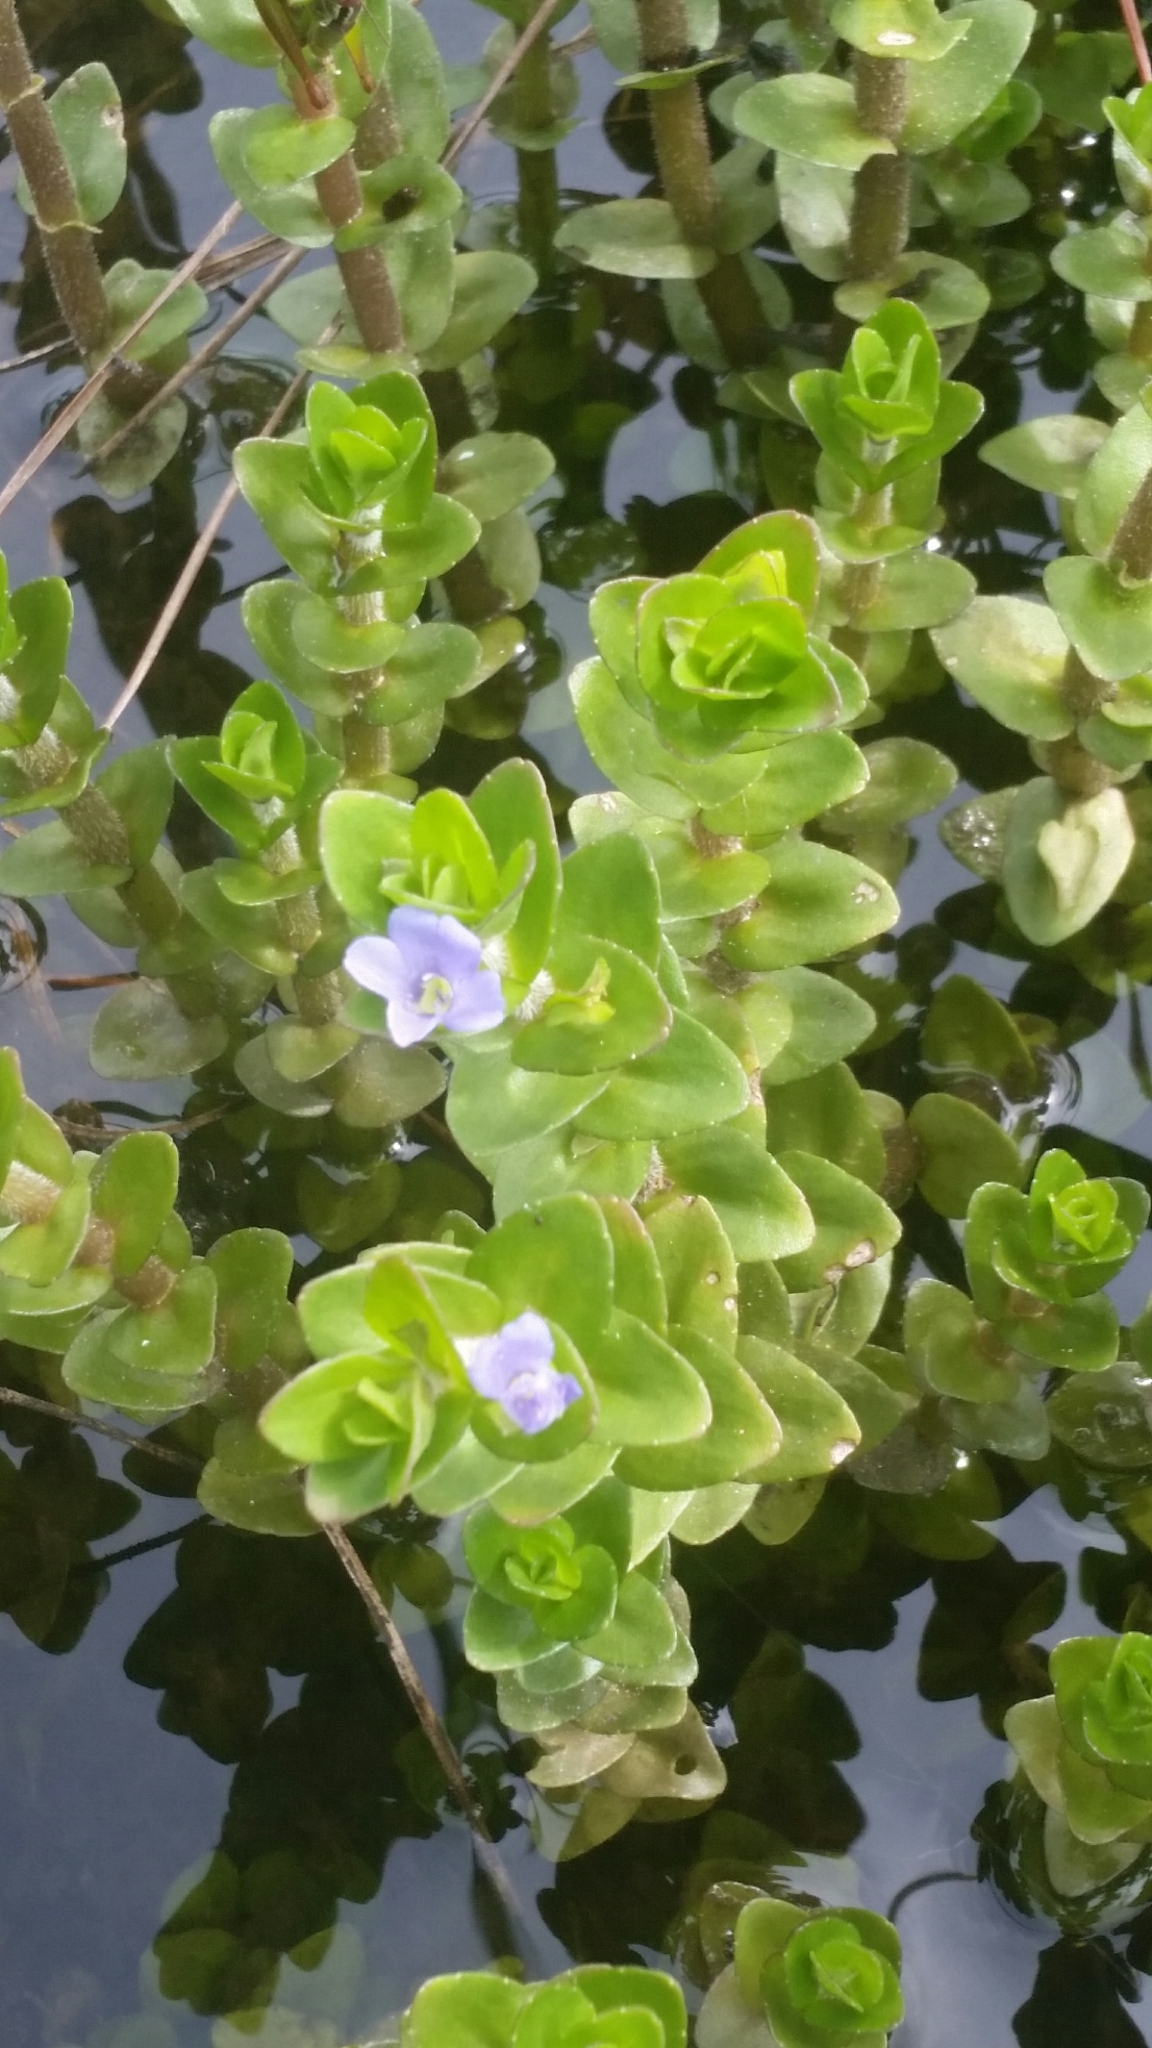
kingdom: Plantae
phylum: Tracheophyta
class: Magnoliopsida
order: Lamiales
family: Plantaginaceae
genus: Bacopa
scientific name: Bacopa caroliniana
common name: Lemon bacopa
